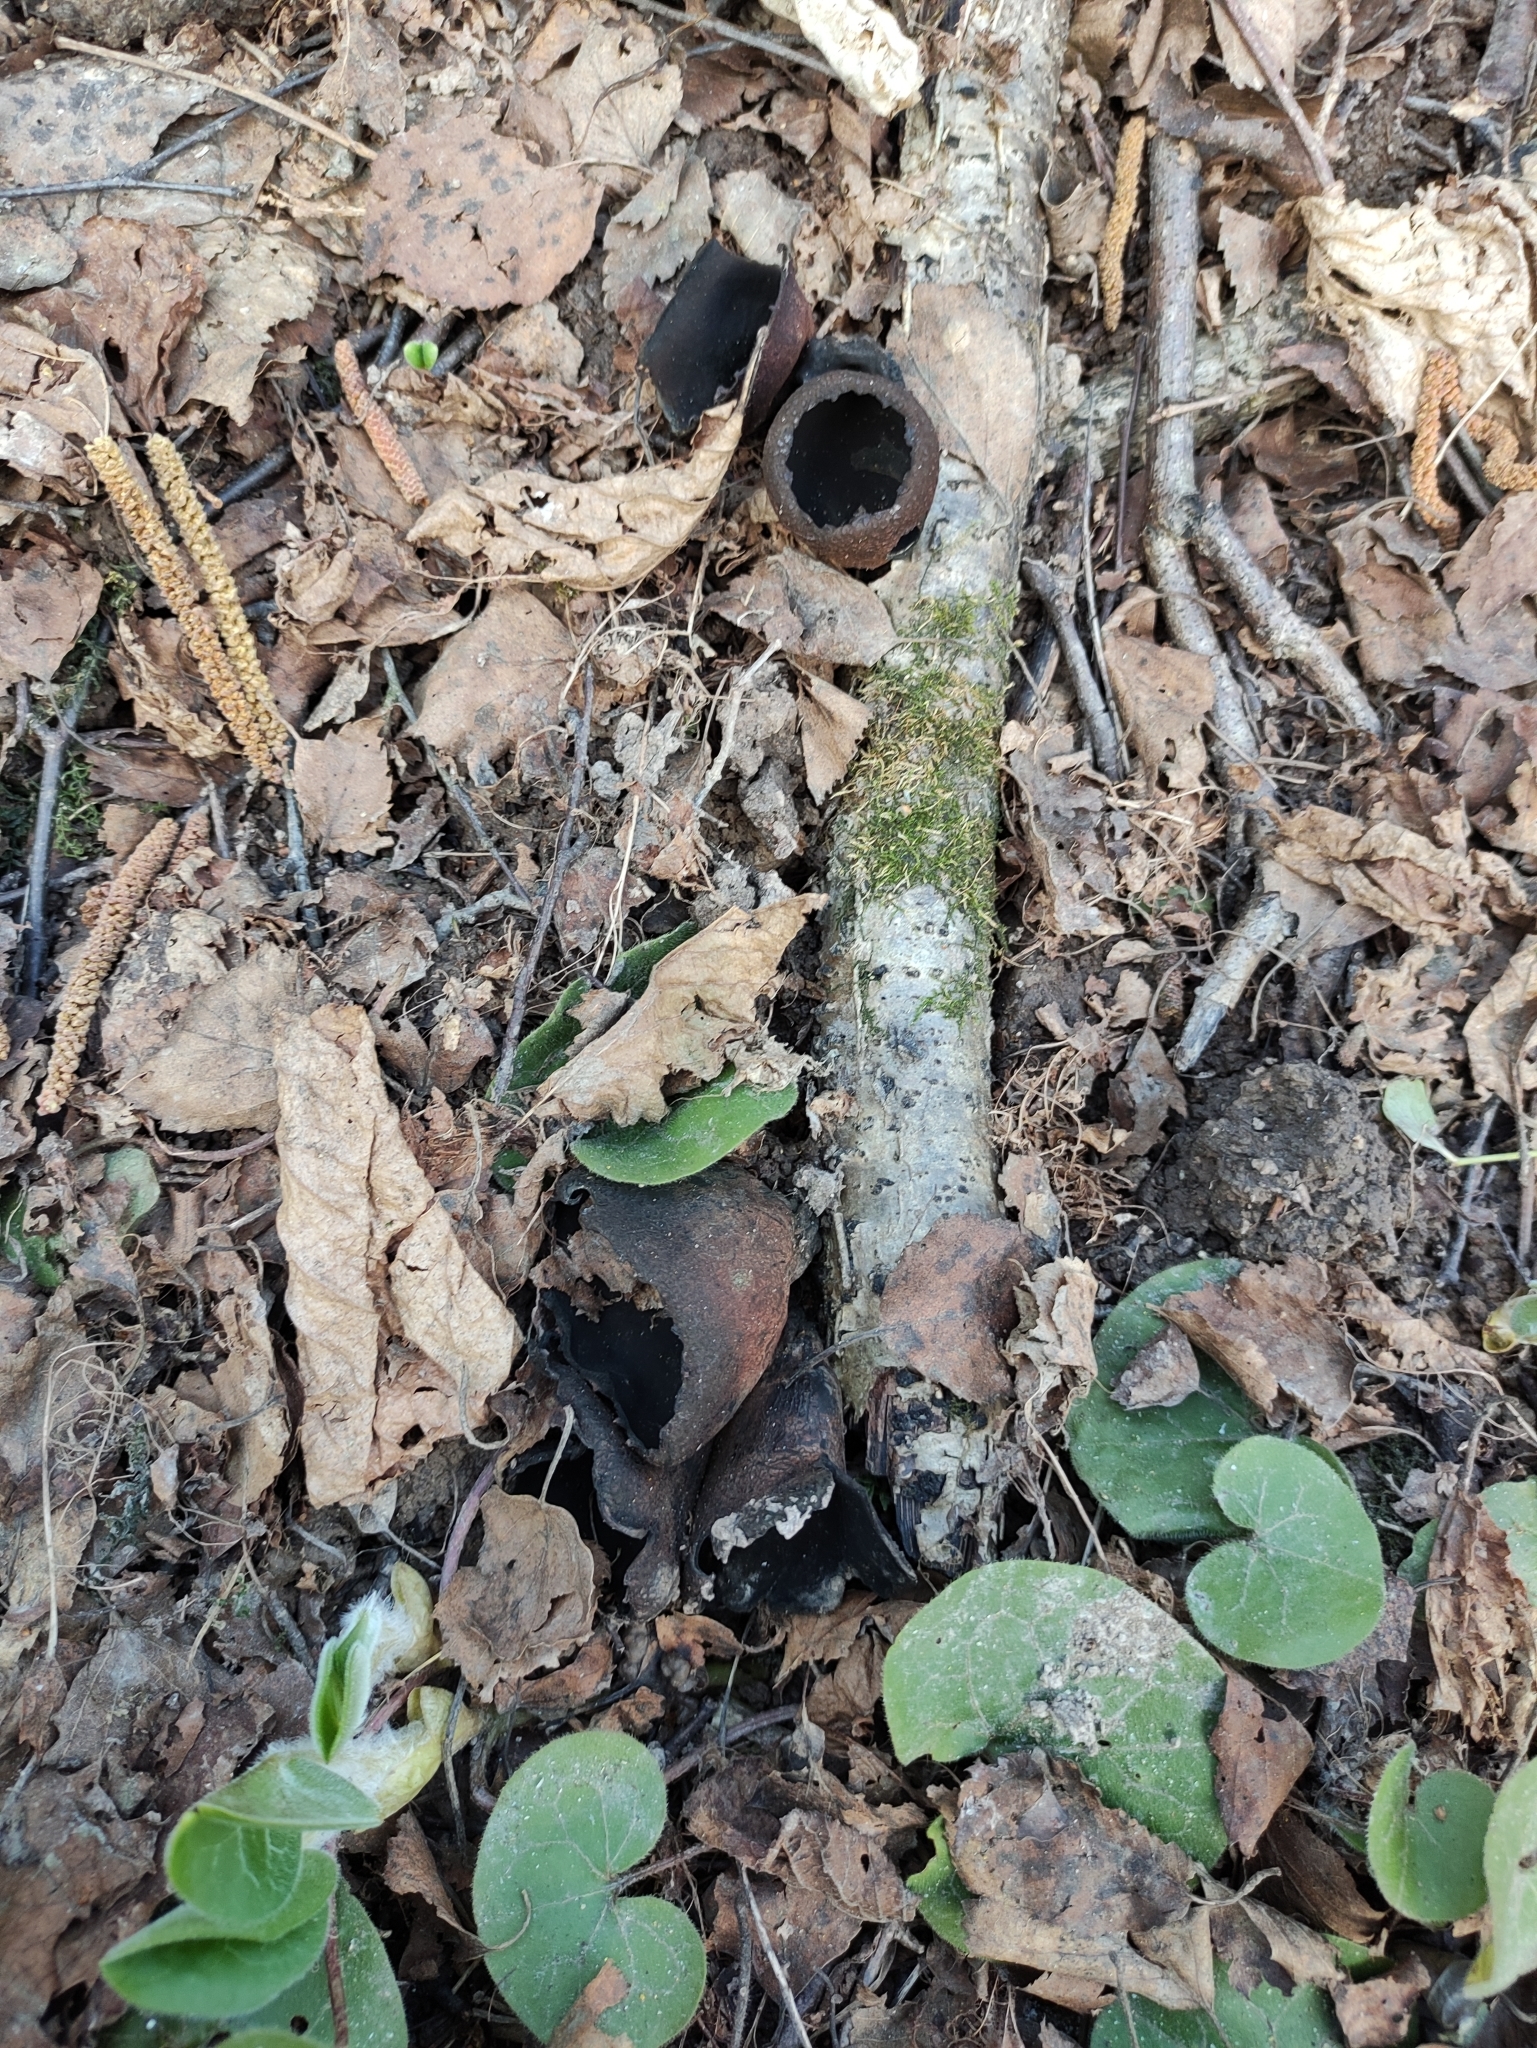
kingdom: Fungi
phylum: Ascomycota
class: Pezizomycetes
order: Pezizales
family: Sarcosomataceae
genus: Urnula
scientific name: Urnula craterium
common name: Devil's urn
